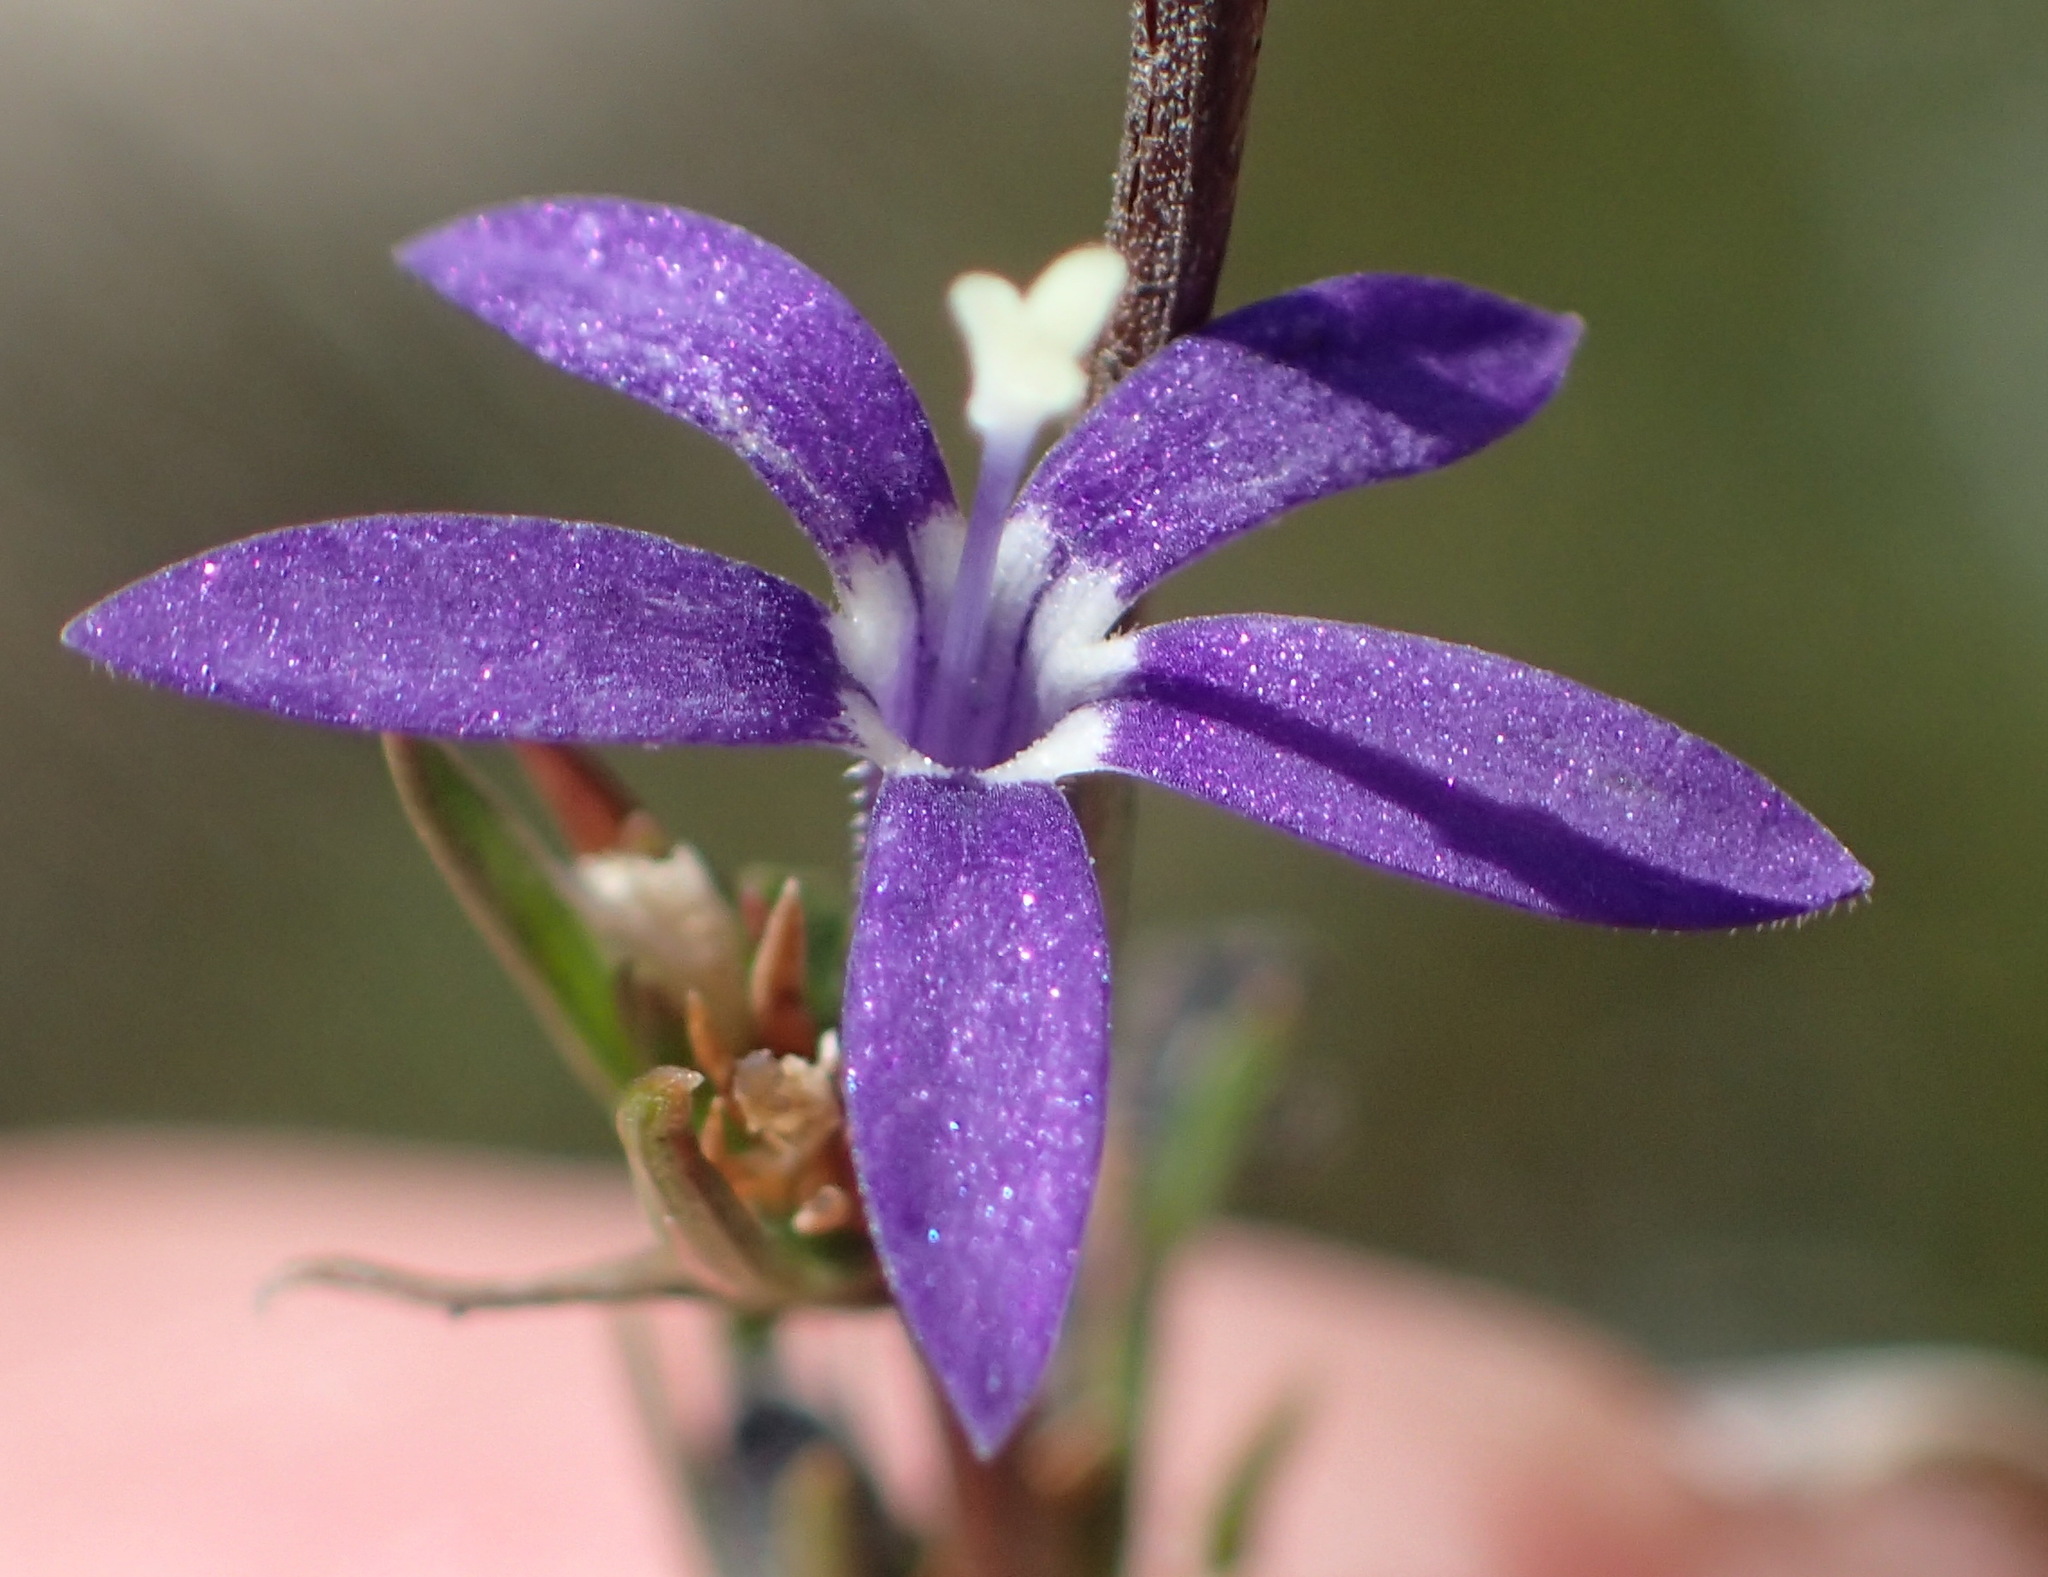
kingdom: Plantae
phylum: Tracheophyta
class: Magnoliopsida
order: Asterales
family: Campanulaceae
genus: Theilera
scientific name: Theilera guthriei
